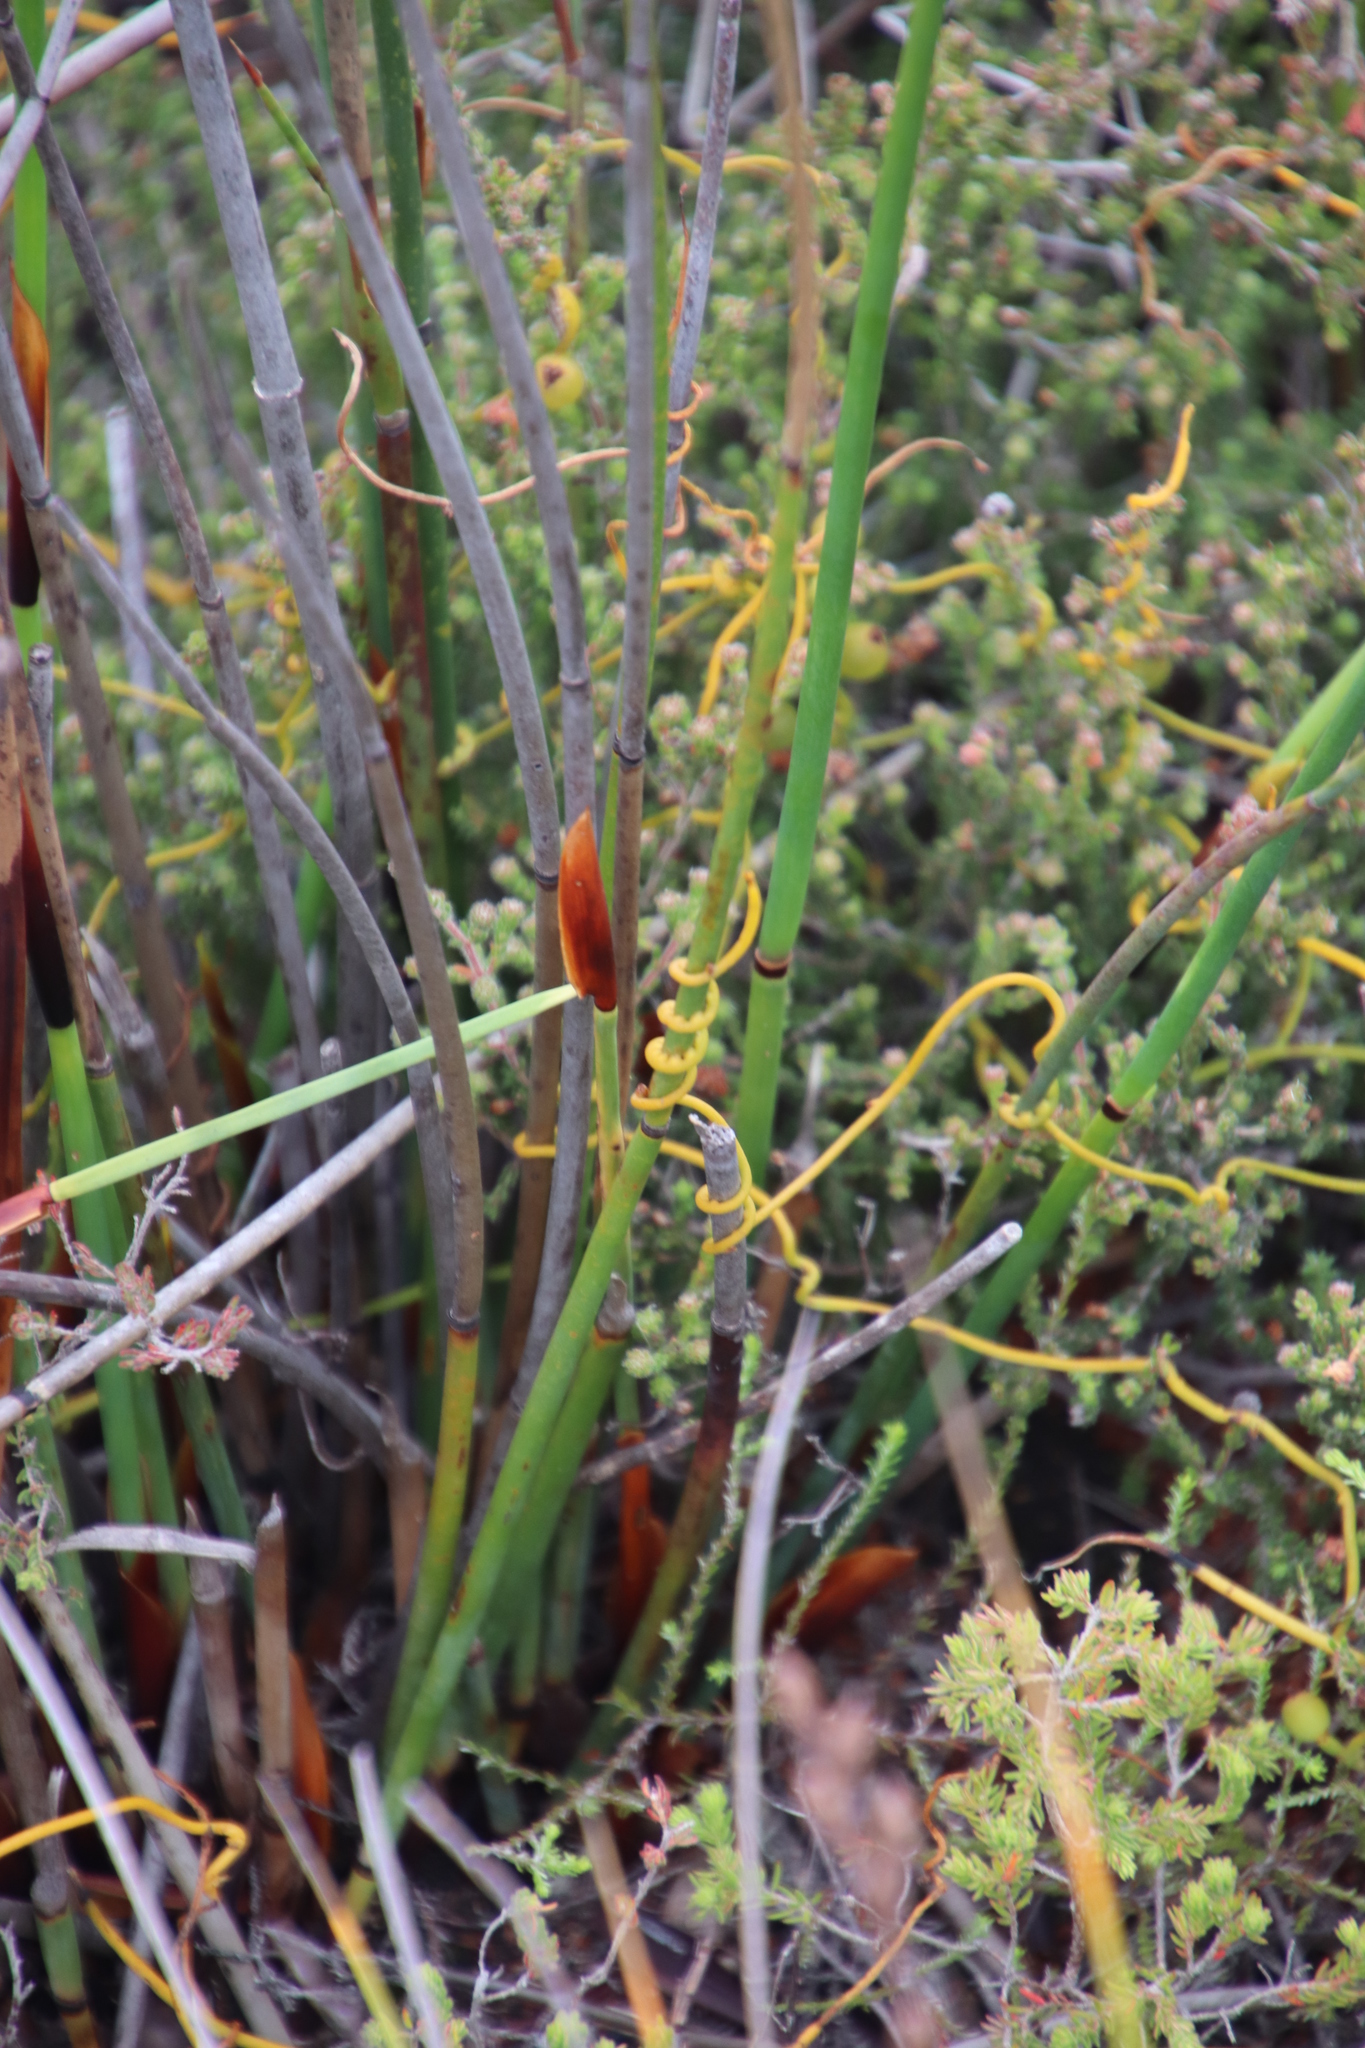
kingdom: Plantae
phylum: Tracheophyta
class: Liliopsida
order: Poales
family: Restionaceae
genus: Elegia
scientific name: Elegia cuspidata
